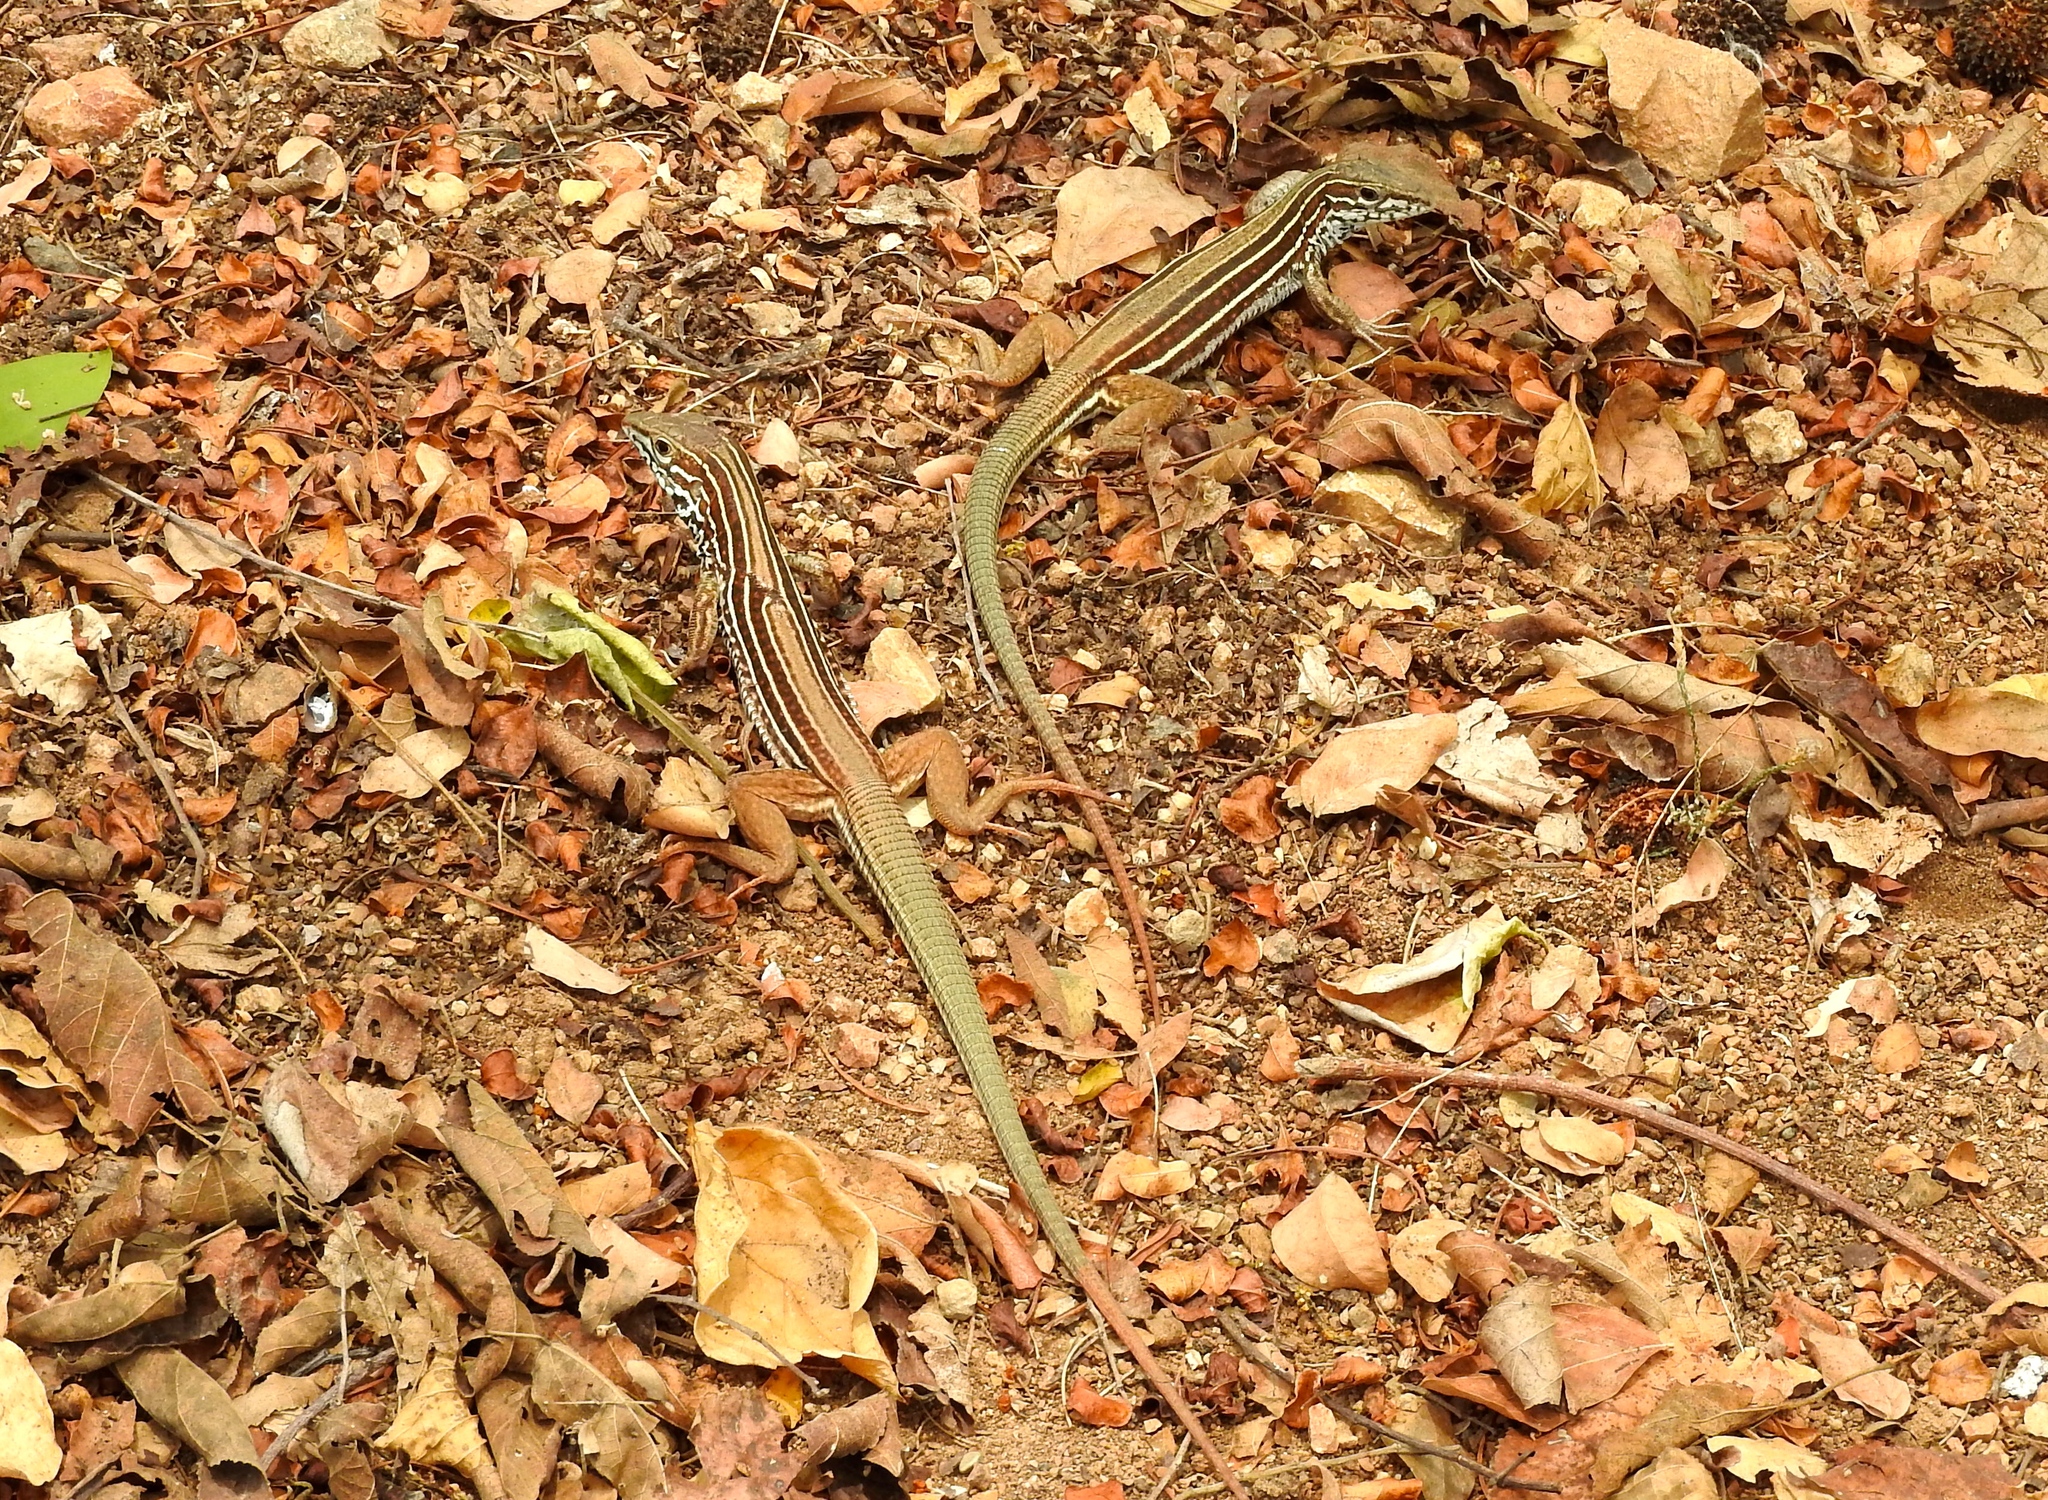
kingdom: Animalia
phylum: Chordata
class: Squamata
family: Teiidae
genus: Aspidoscelis
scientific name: Aspidoscelis costatus
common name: Western mexico whiptail
